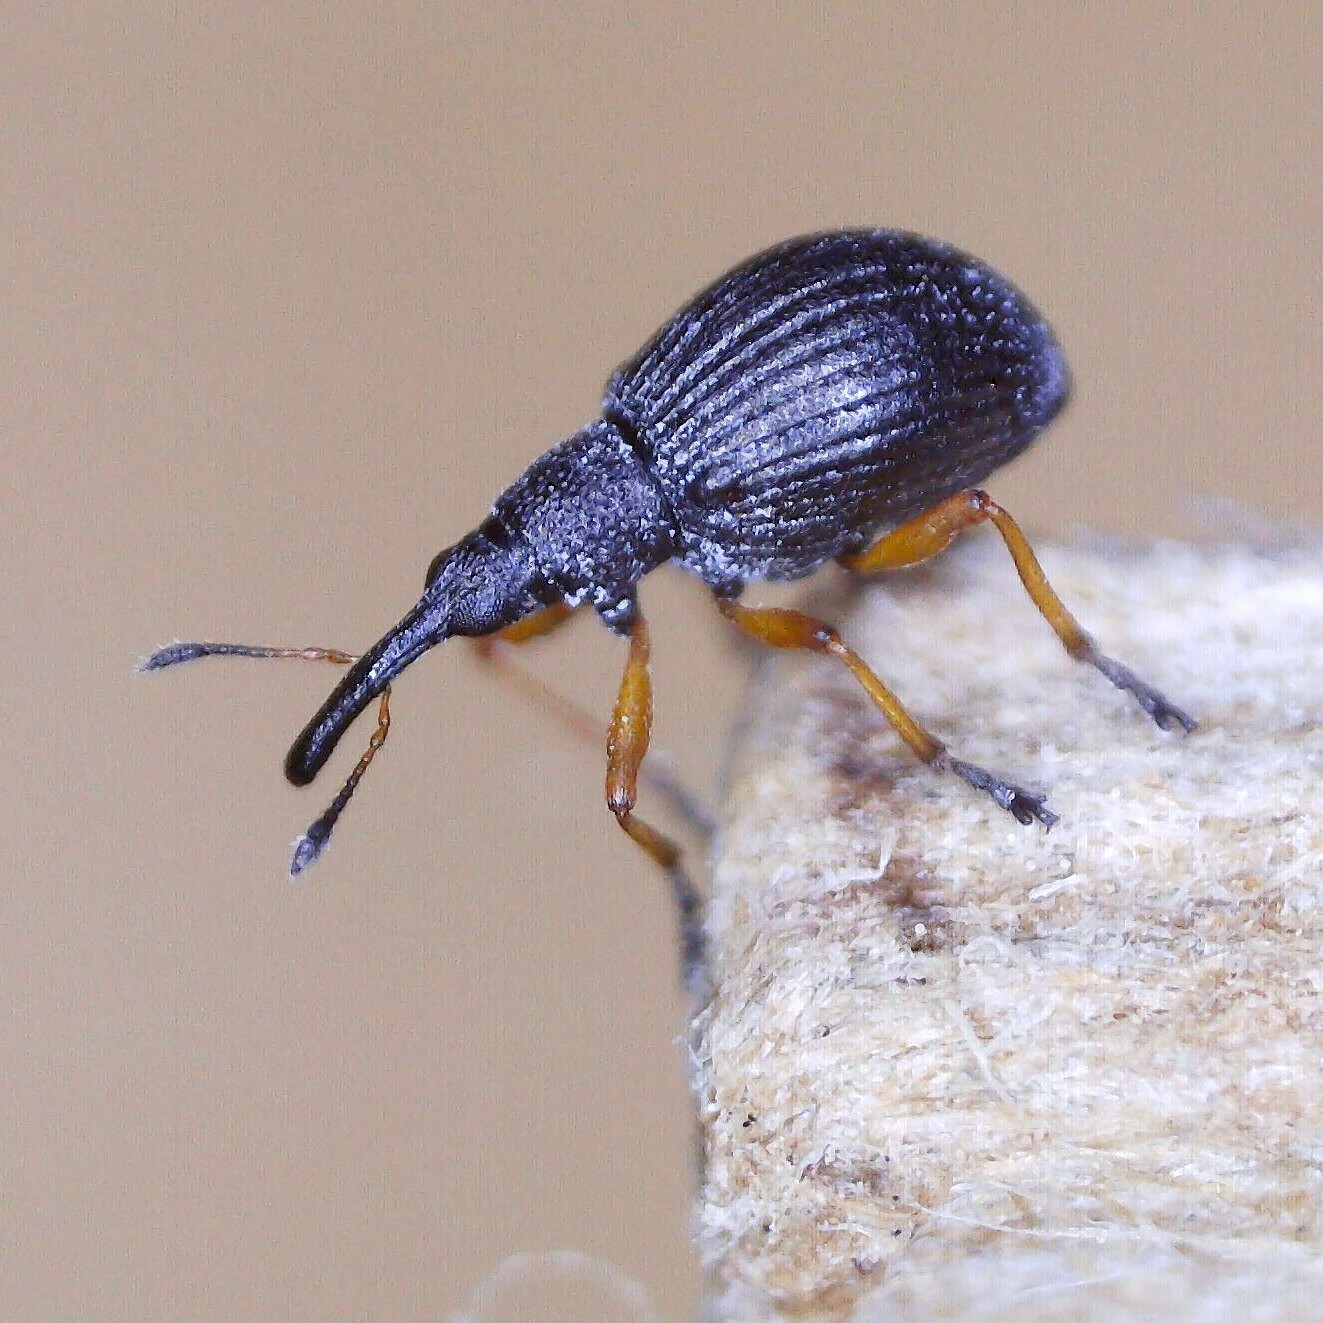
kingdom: Animalia
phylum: Arthropoda
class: Insecta
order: Coleoptera
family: Apionidae
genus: Protapion
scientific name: Protapion fulvipes
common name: White clover seed weevil
